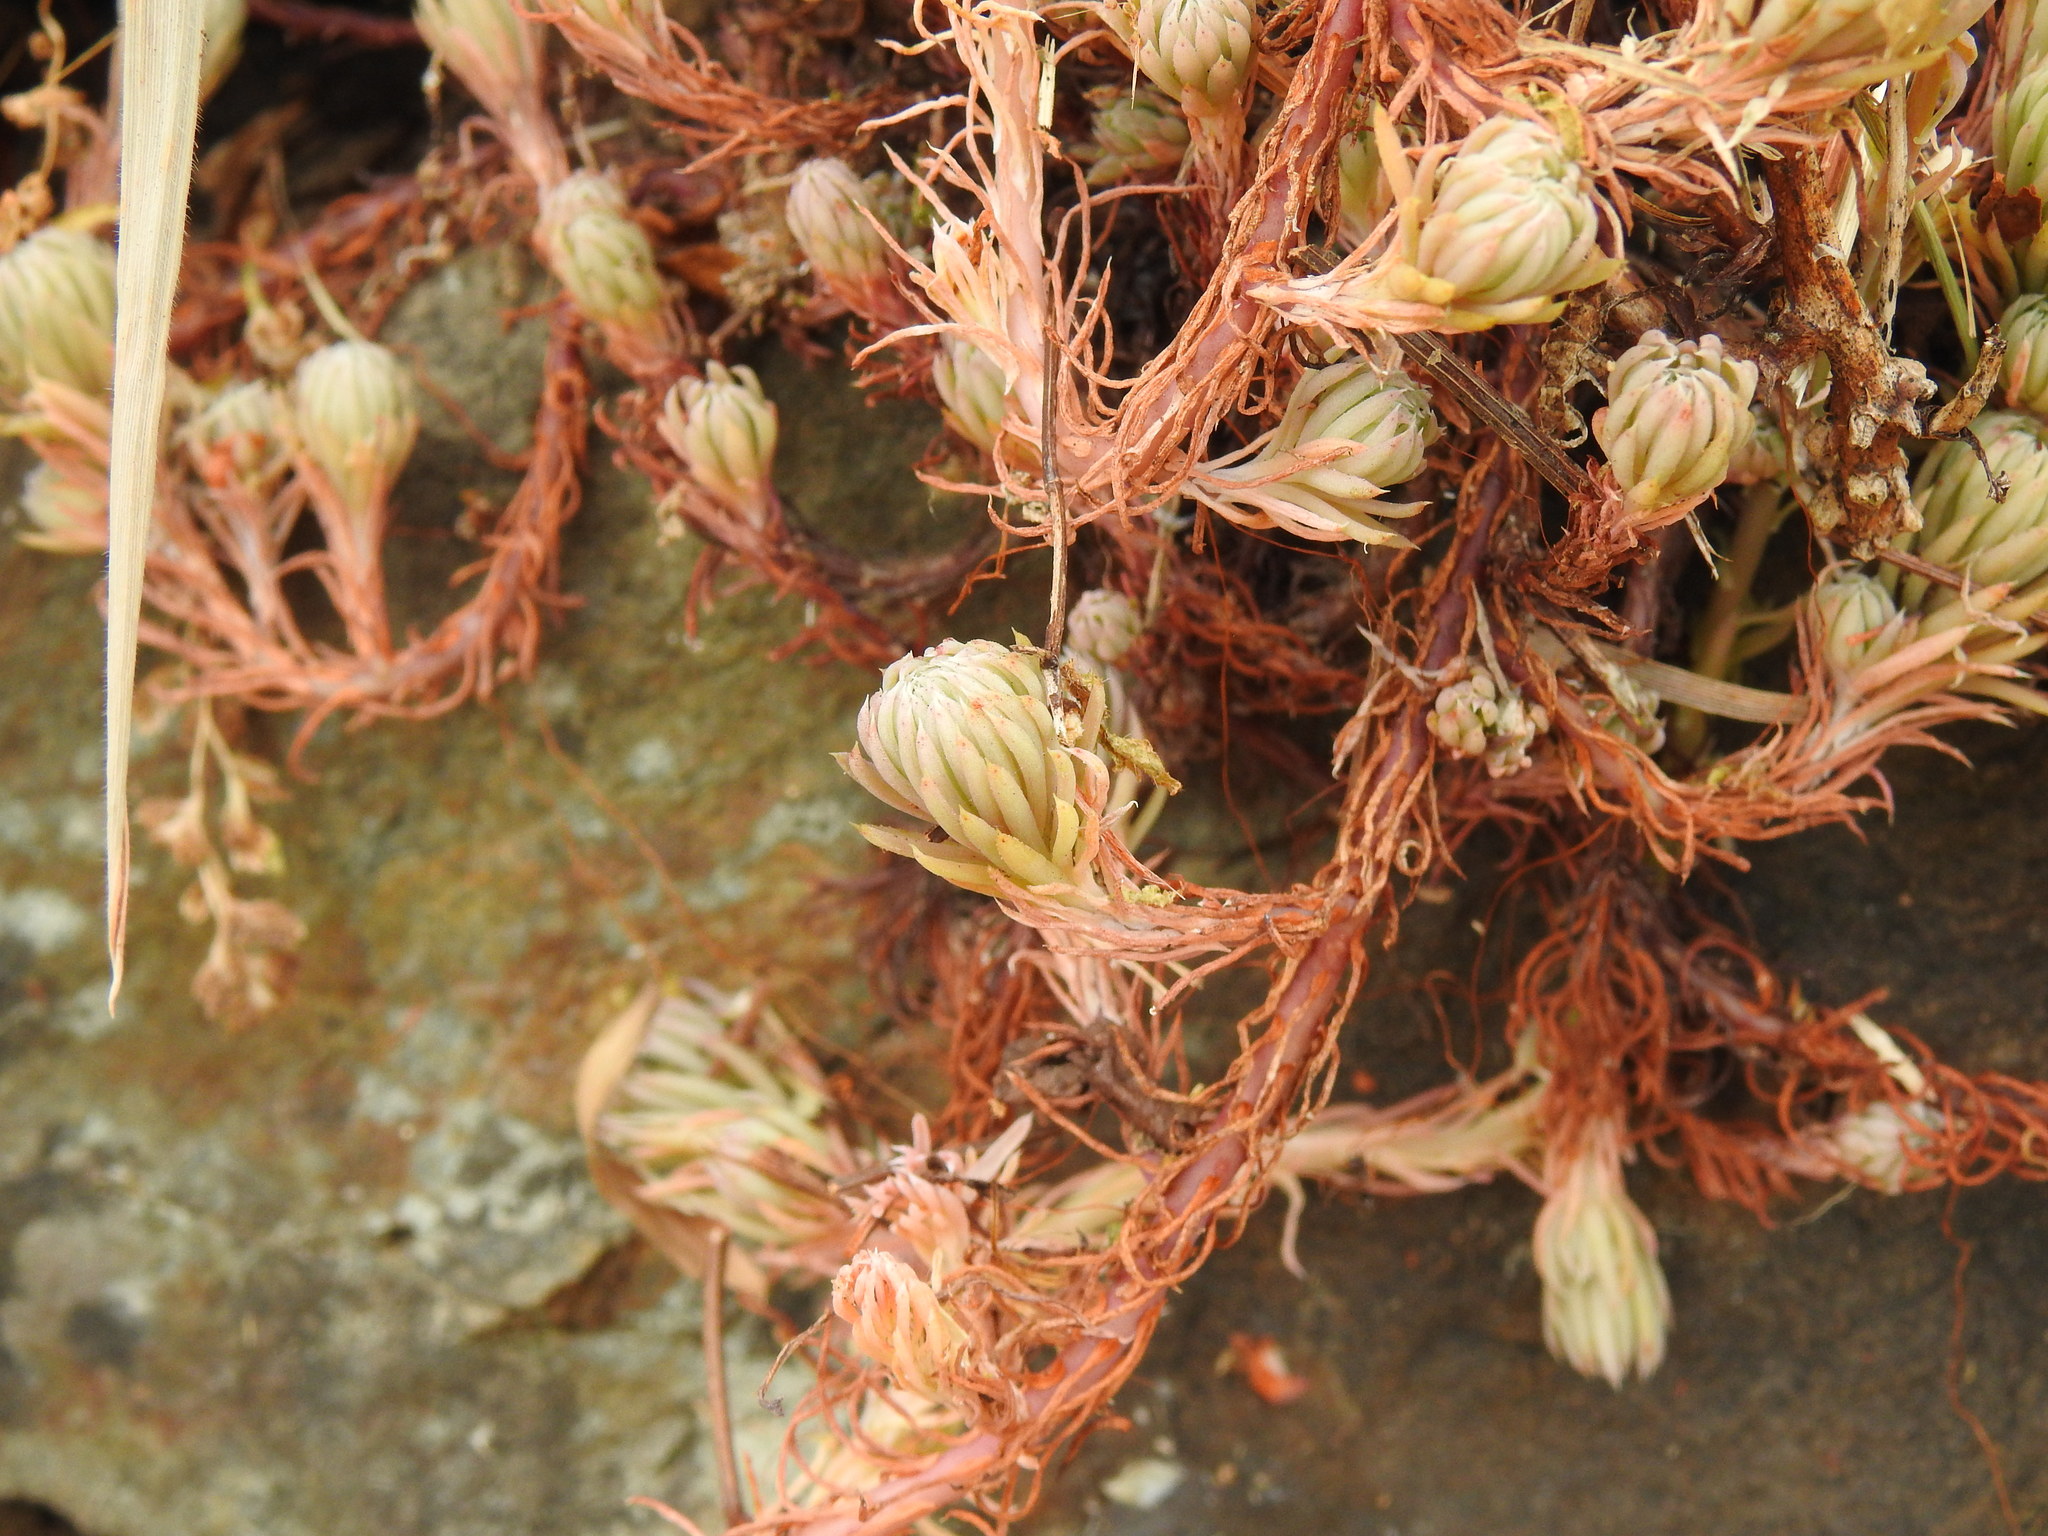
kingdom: Plantae
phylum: Tracheophyta
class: Magnoliopsida
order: Saxifragales
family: Crassulaceae
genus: Petrosedum
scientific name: Petrosedum forsterianum
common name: Forster's stonecrop
